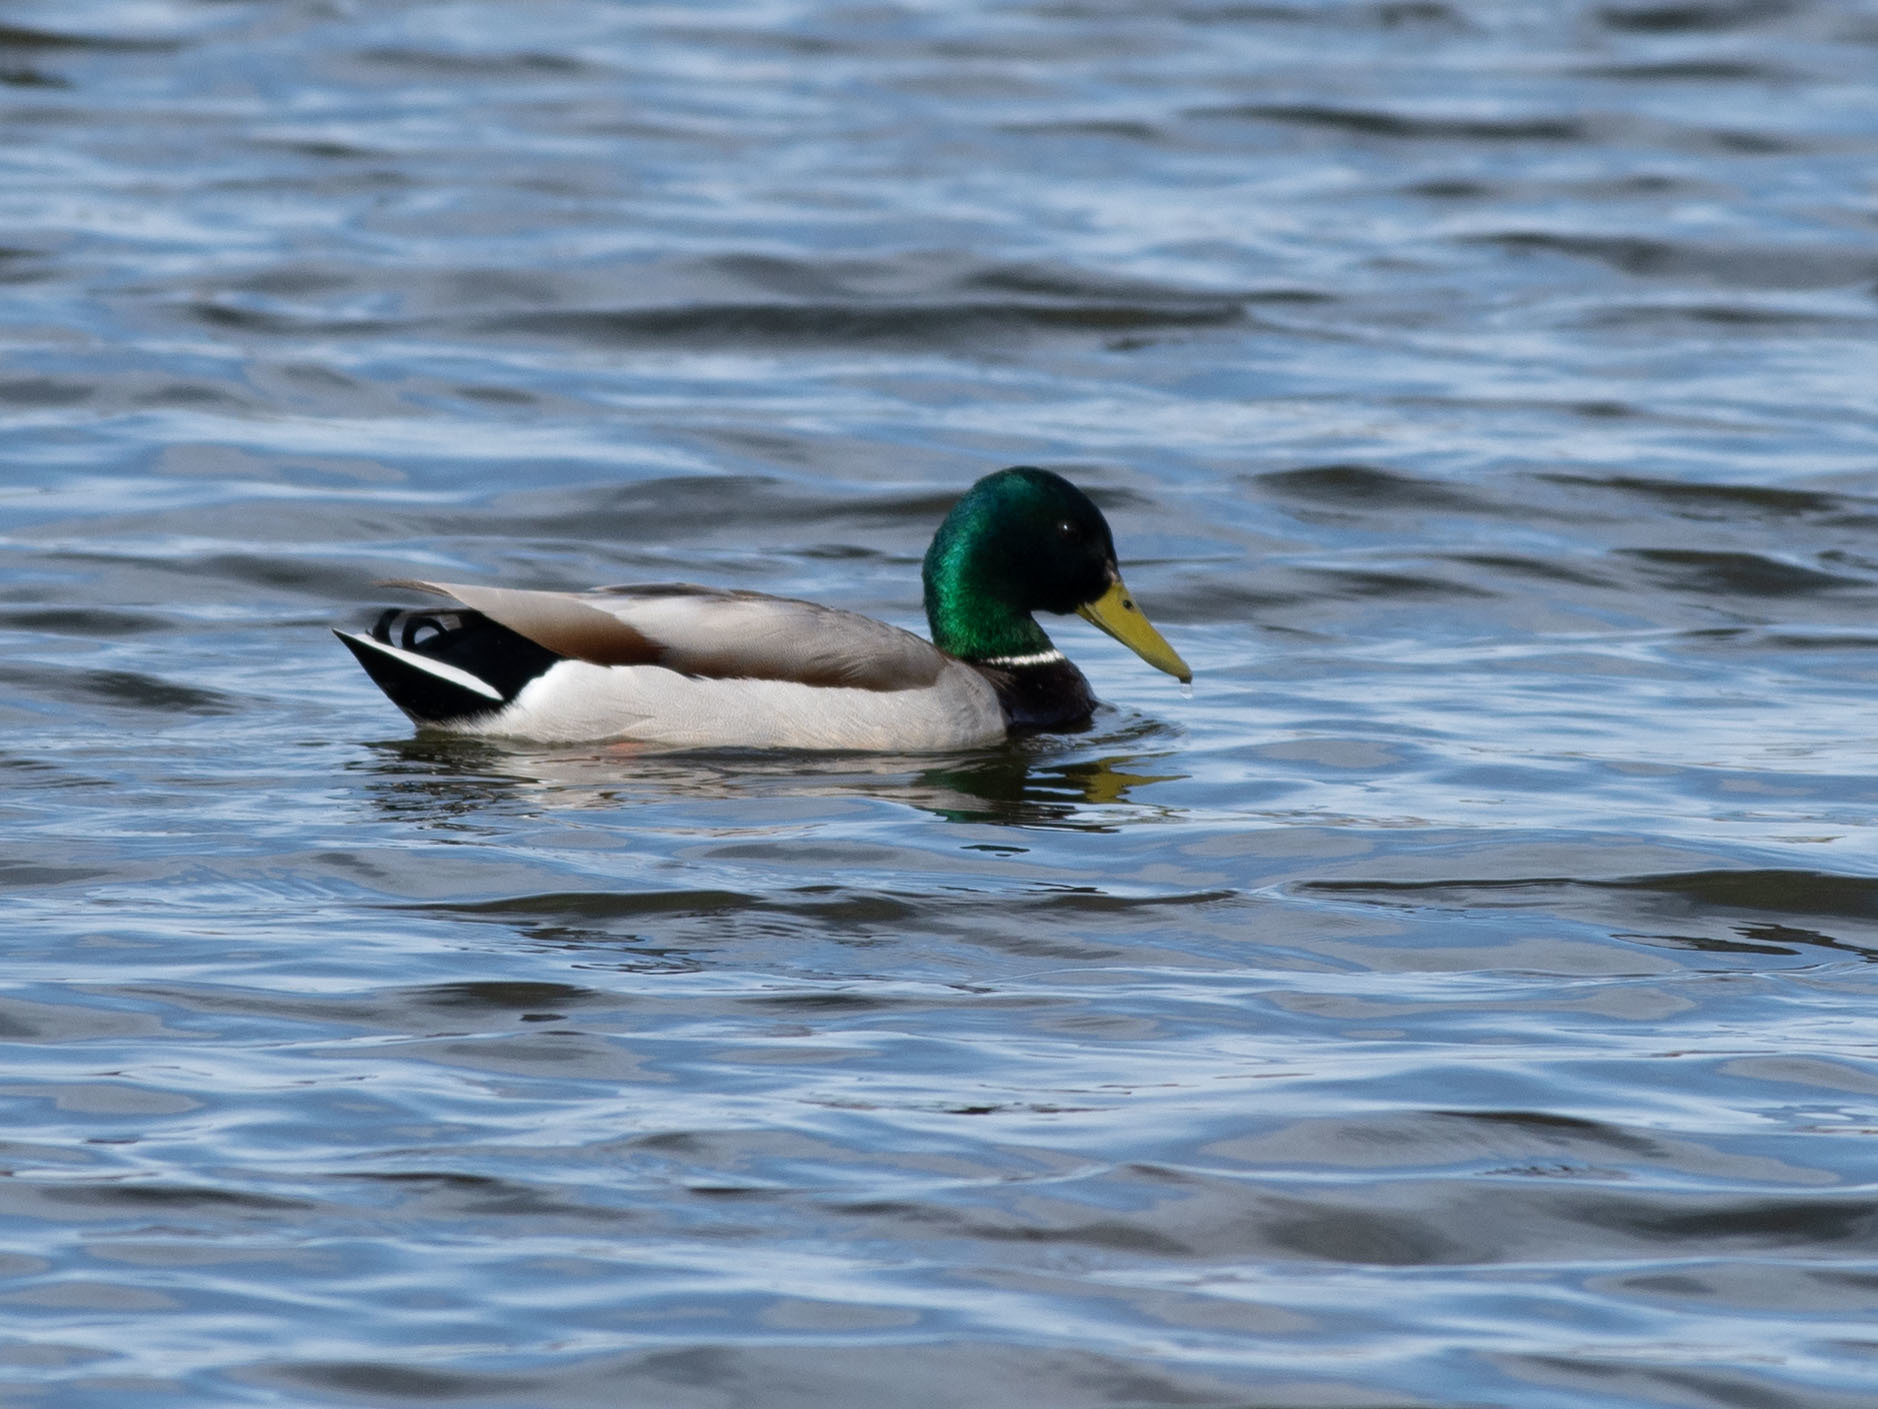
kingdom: Animalia
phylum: Chordata
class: Aves
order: Anseriformes
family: Anatidae
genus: Anas
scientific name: Anas platyrhynchos
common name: Mallard
